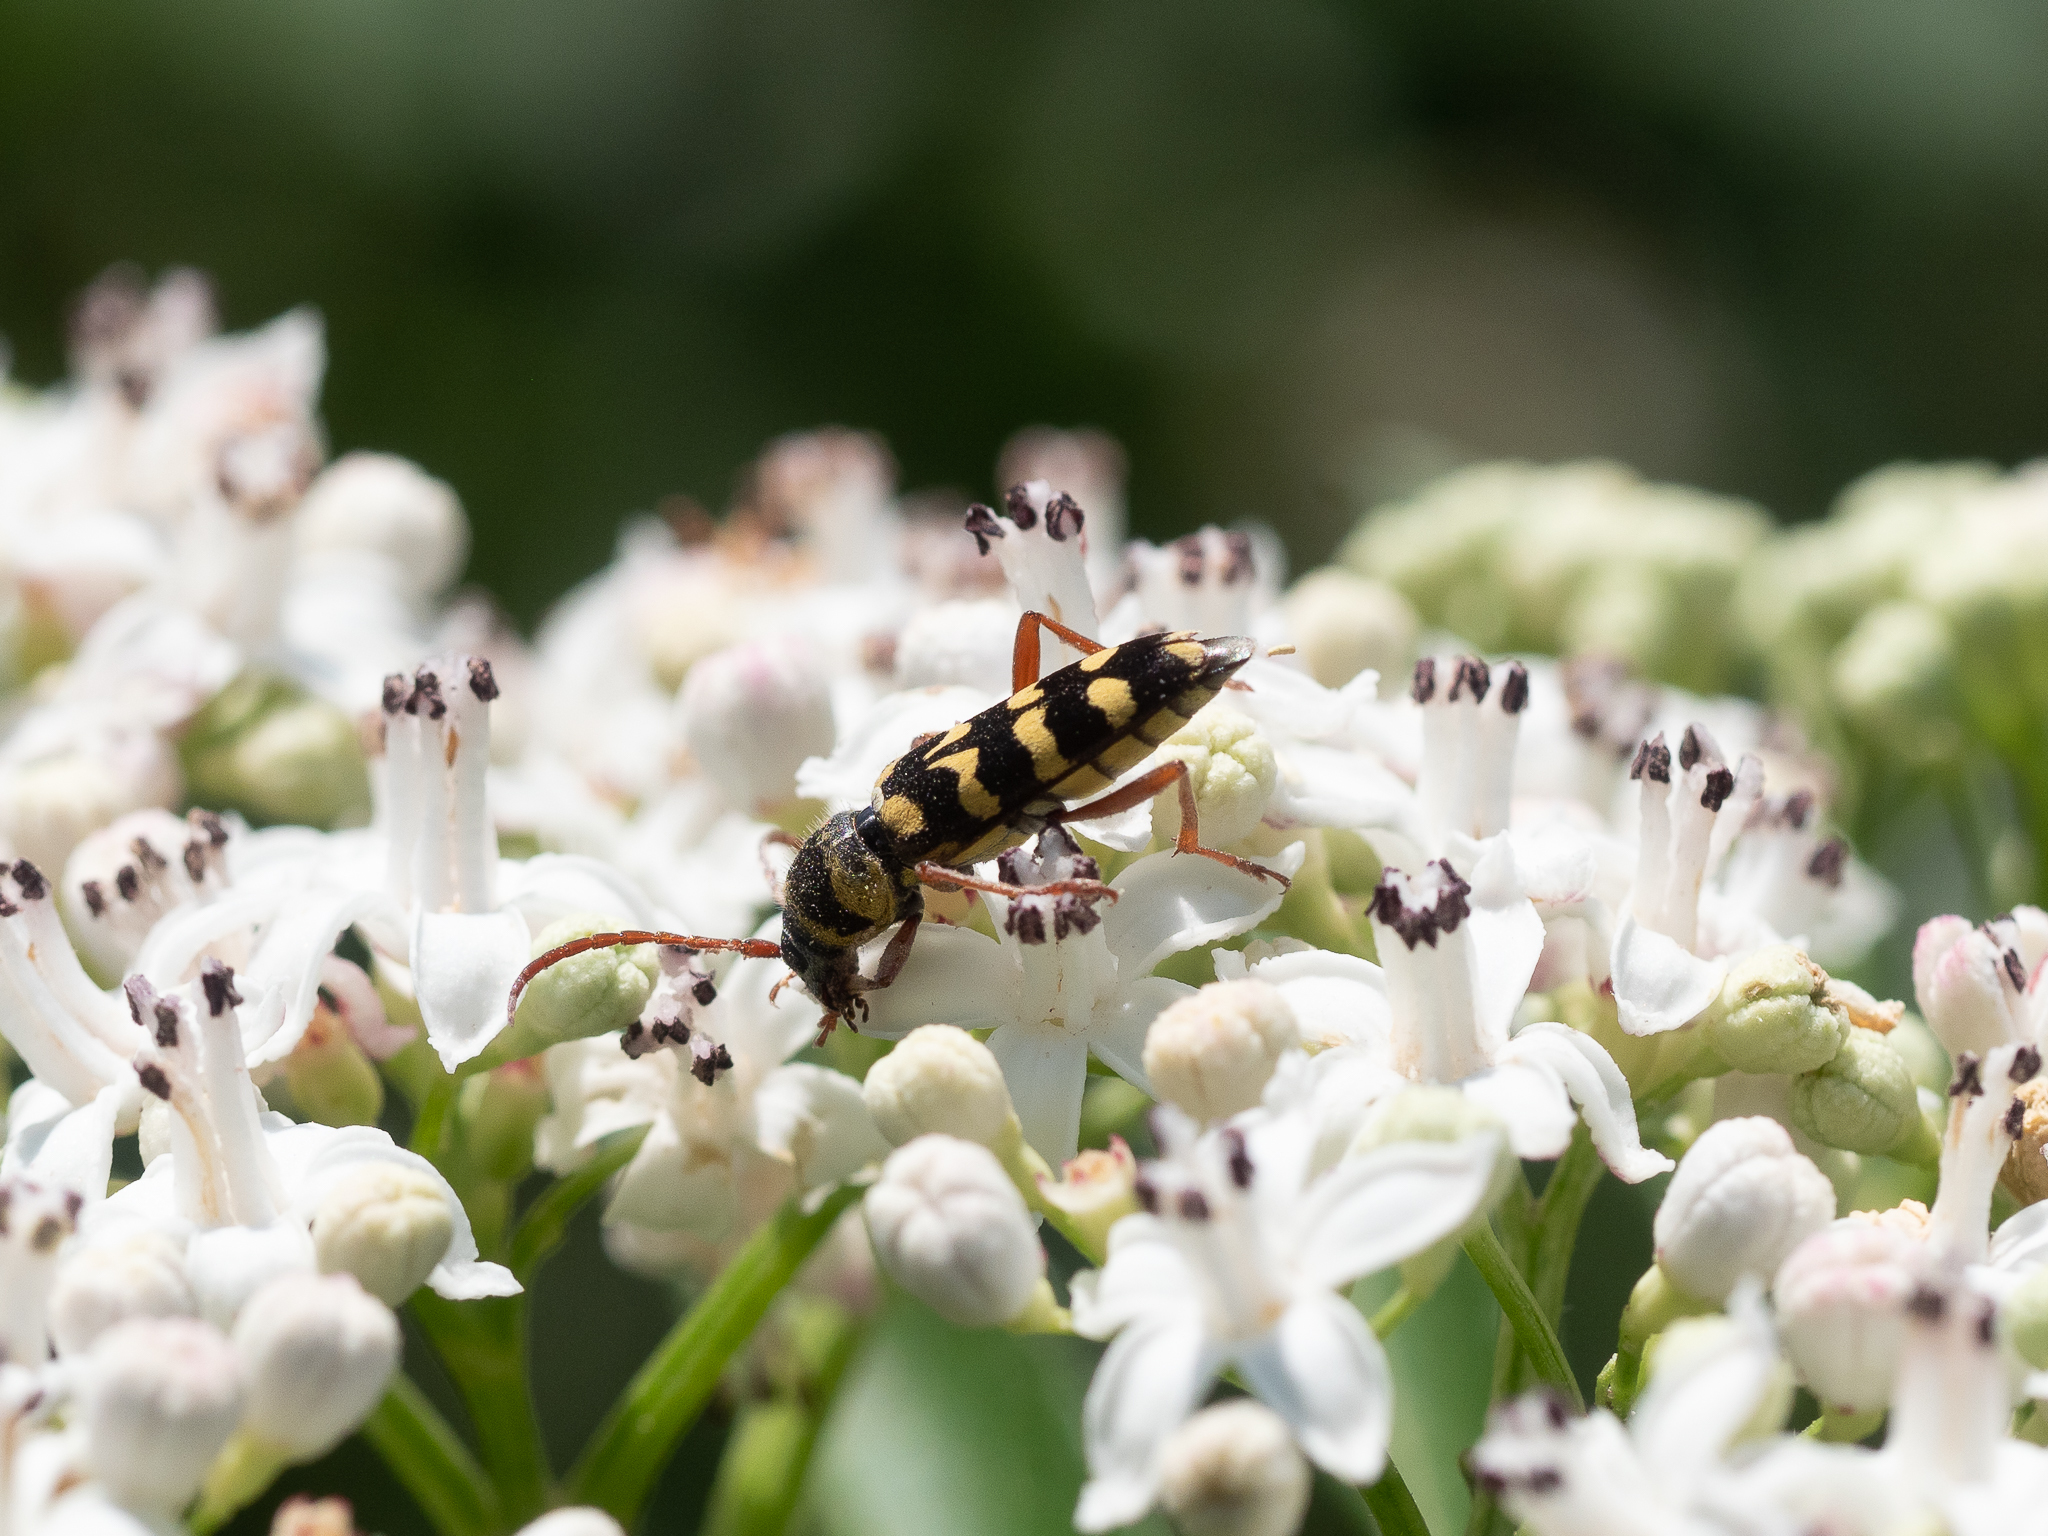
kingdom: Animalia
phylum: Arthropoda
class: Insecta
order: Coleoptera
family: Cerambycidae
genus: Plagionotus
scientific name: Plagionotus floralis
